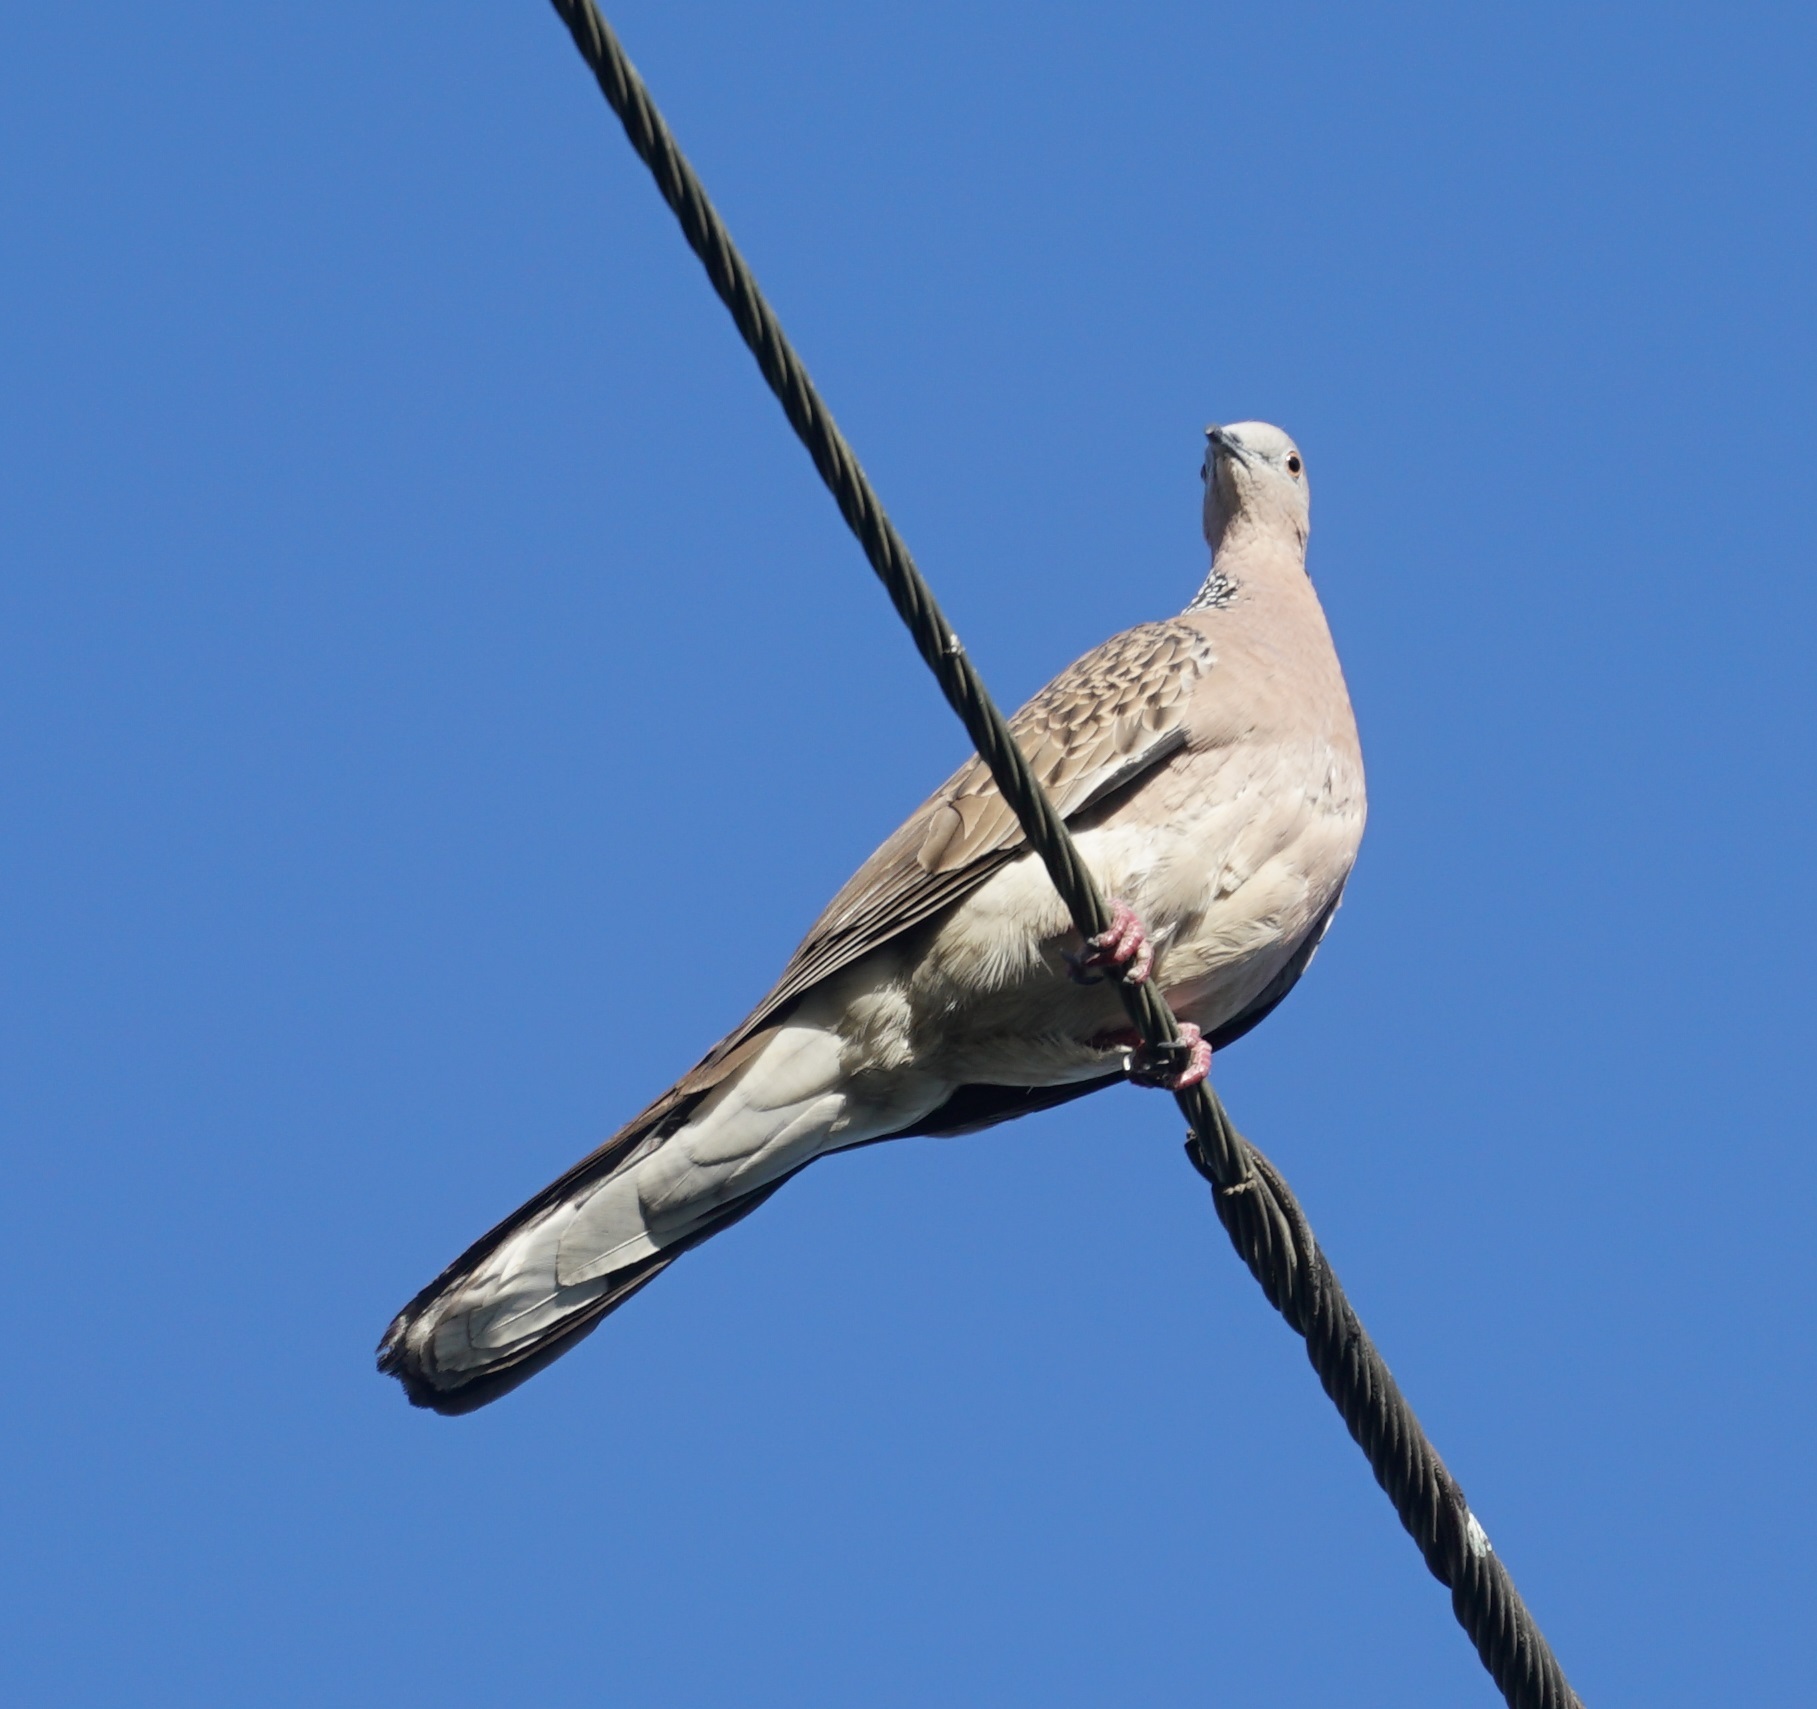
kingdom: Animalia
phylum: Chordata
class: Aves
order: Columbiformes
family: Columbidae
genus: Spilopelia
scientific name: Spilopelia chinensis
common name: Spotted dove
